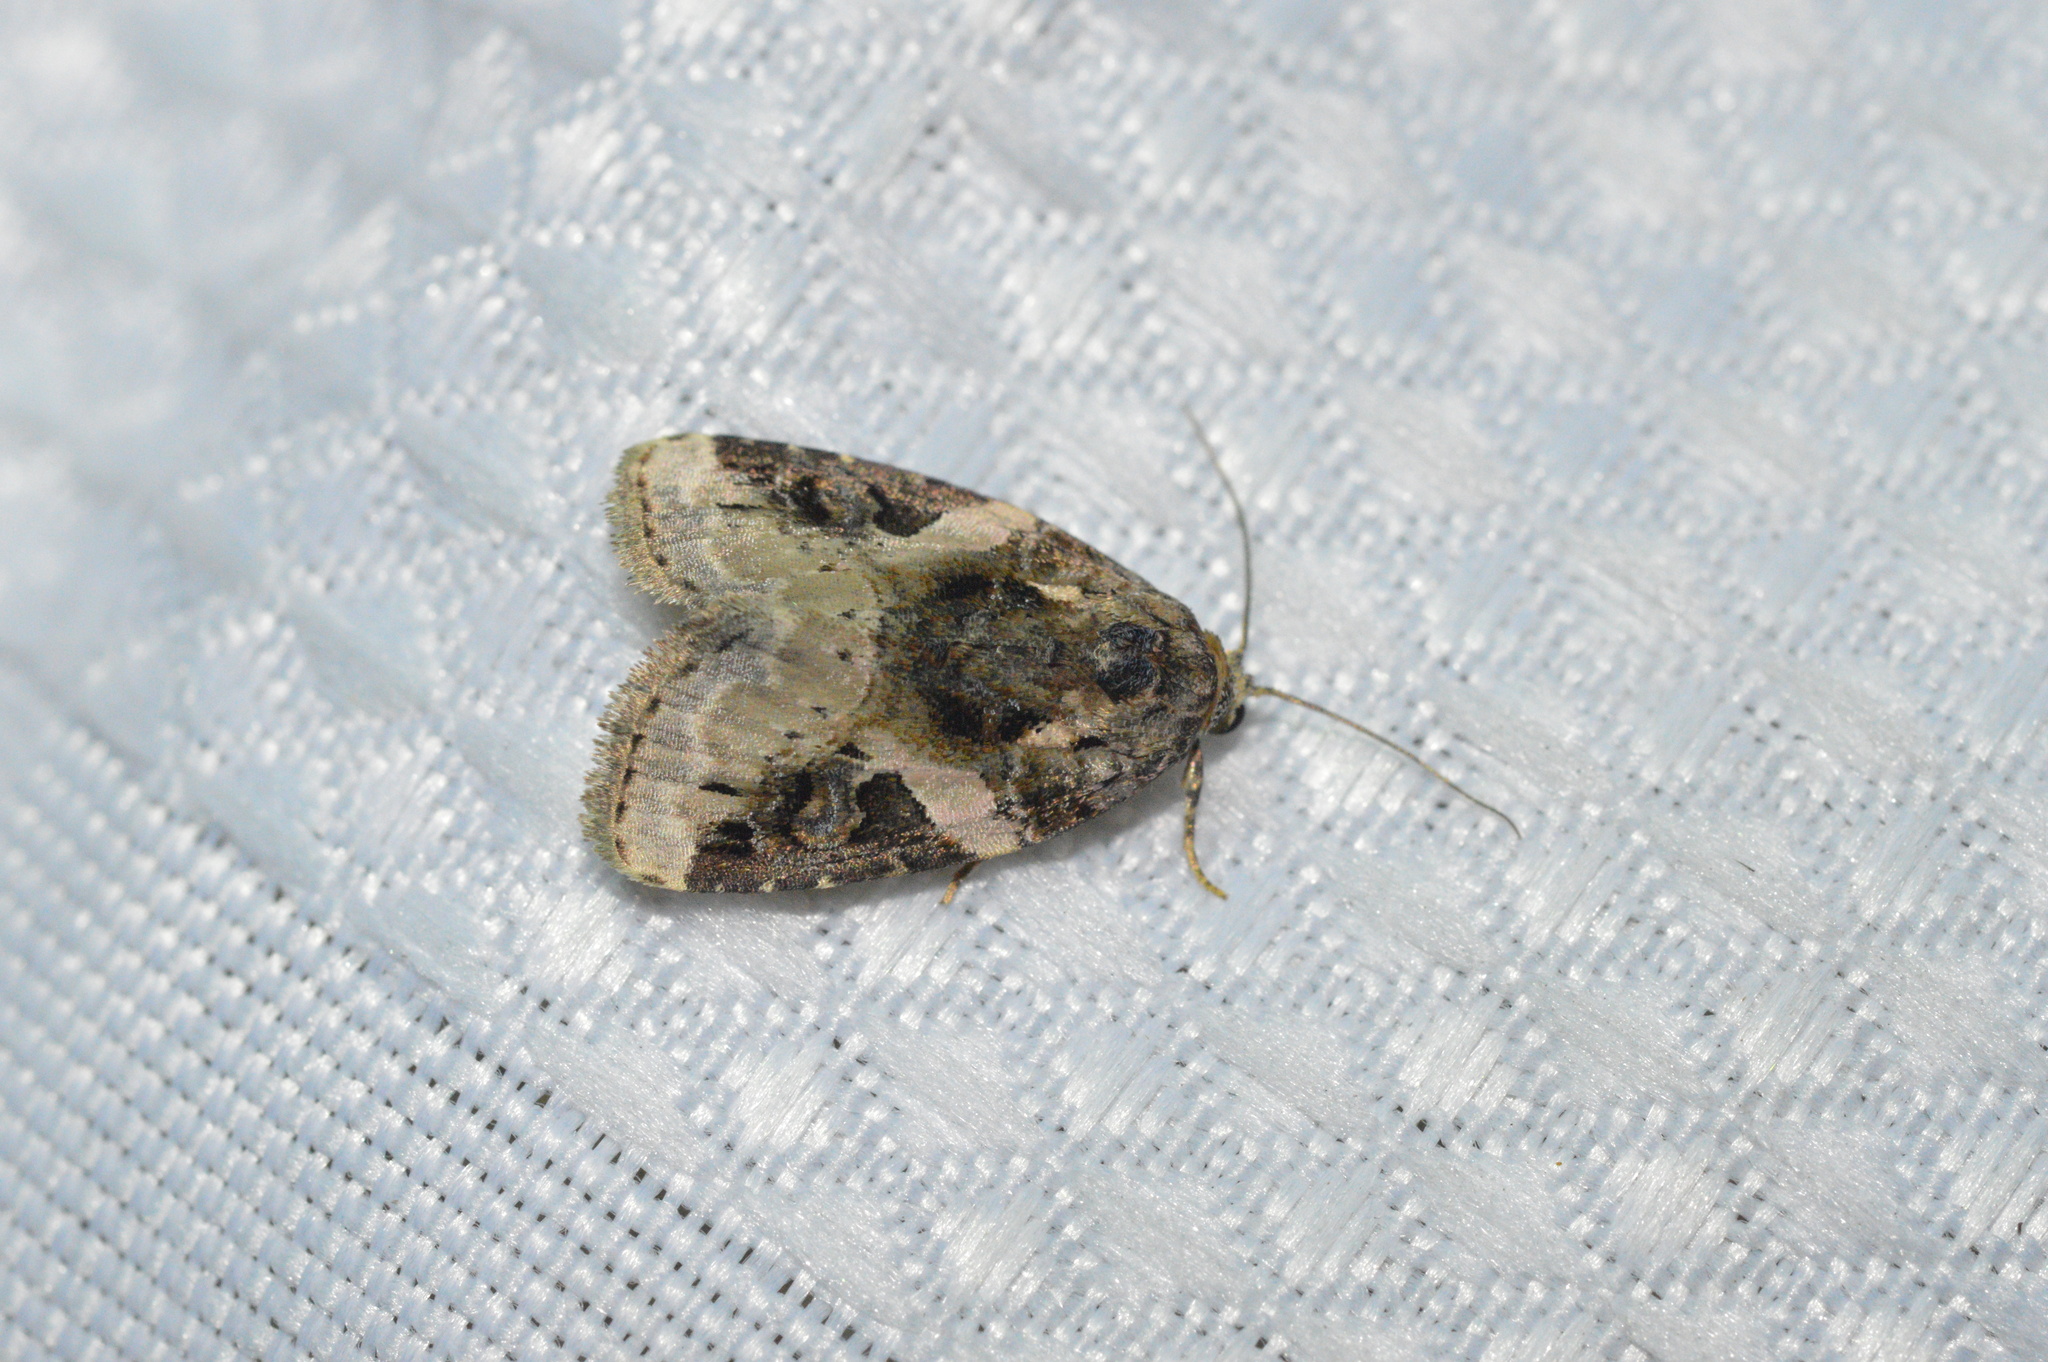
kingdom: Animalia
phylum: Arthropoda
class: Insecta
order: Lepidoptera
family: Noctuidae
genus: Pseudeustrotia
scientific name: Pseudeustrotia carneola
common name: Pink-barred lithacodia moth
